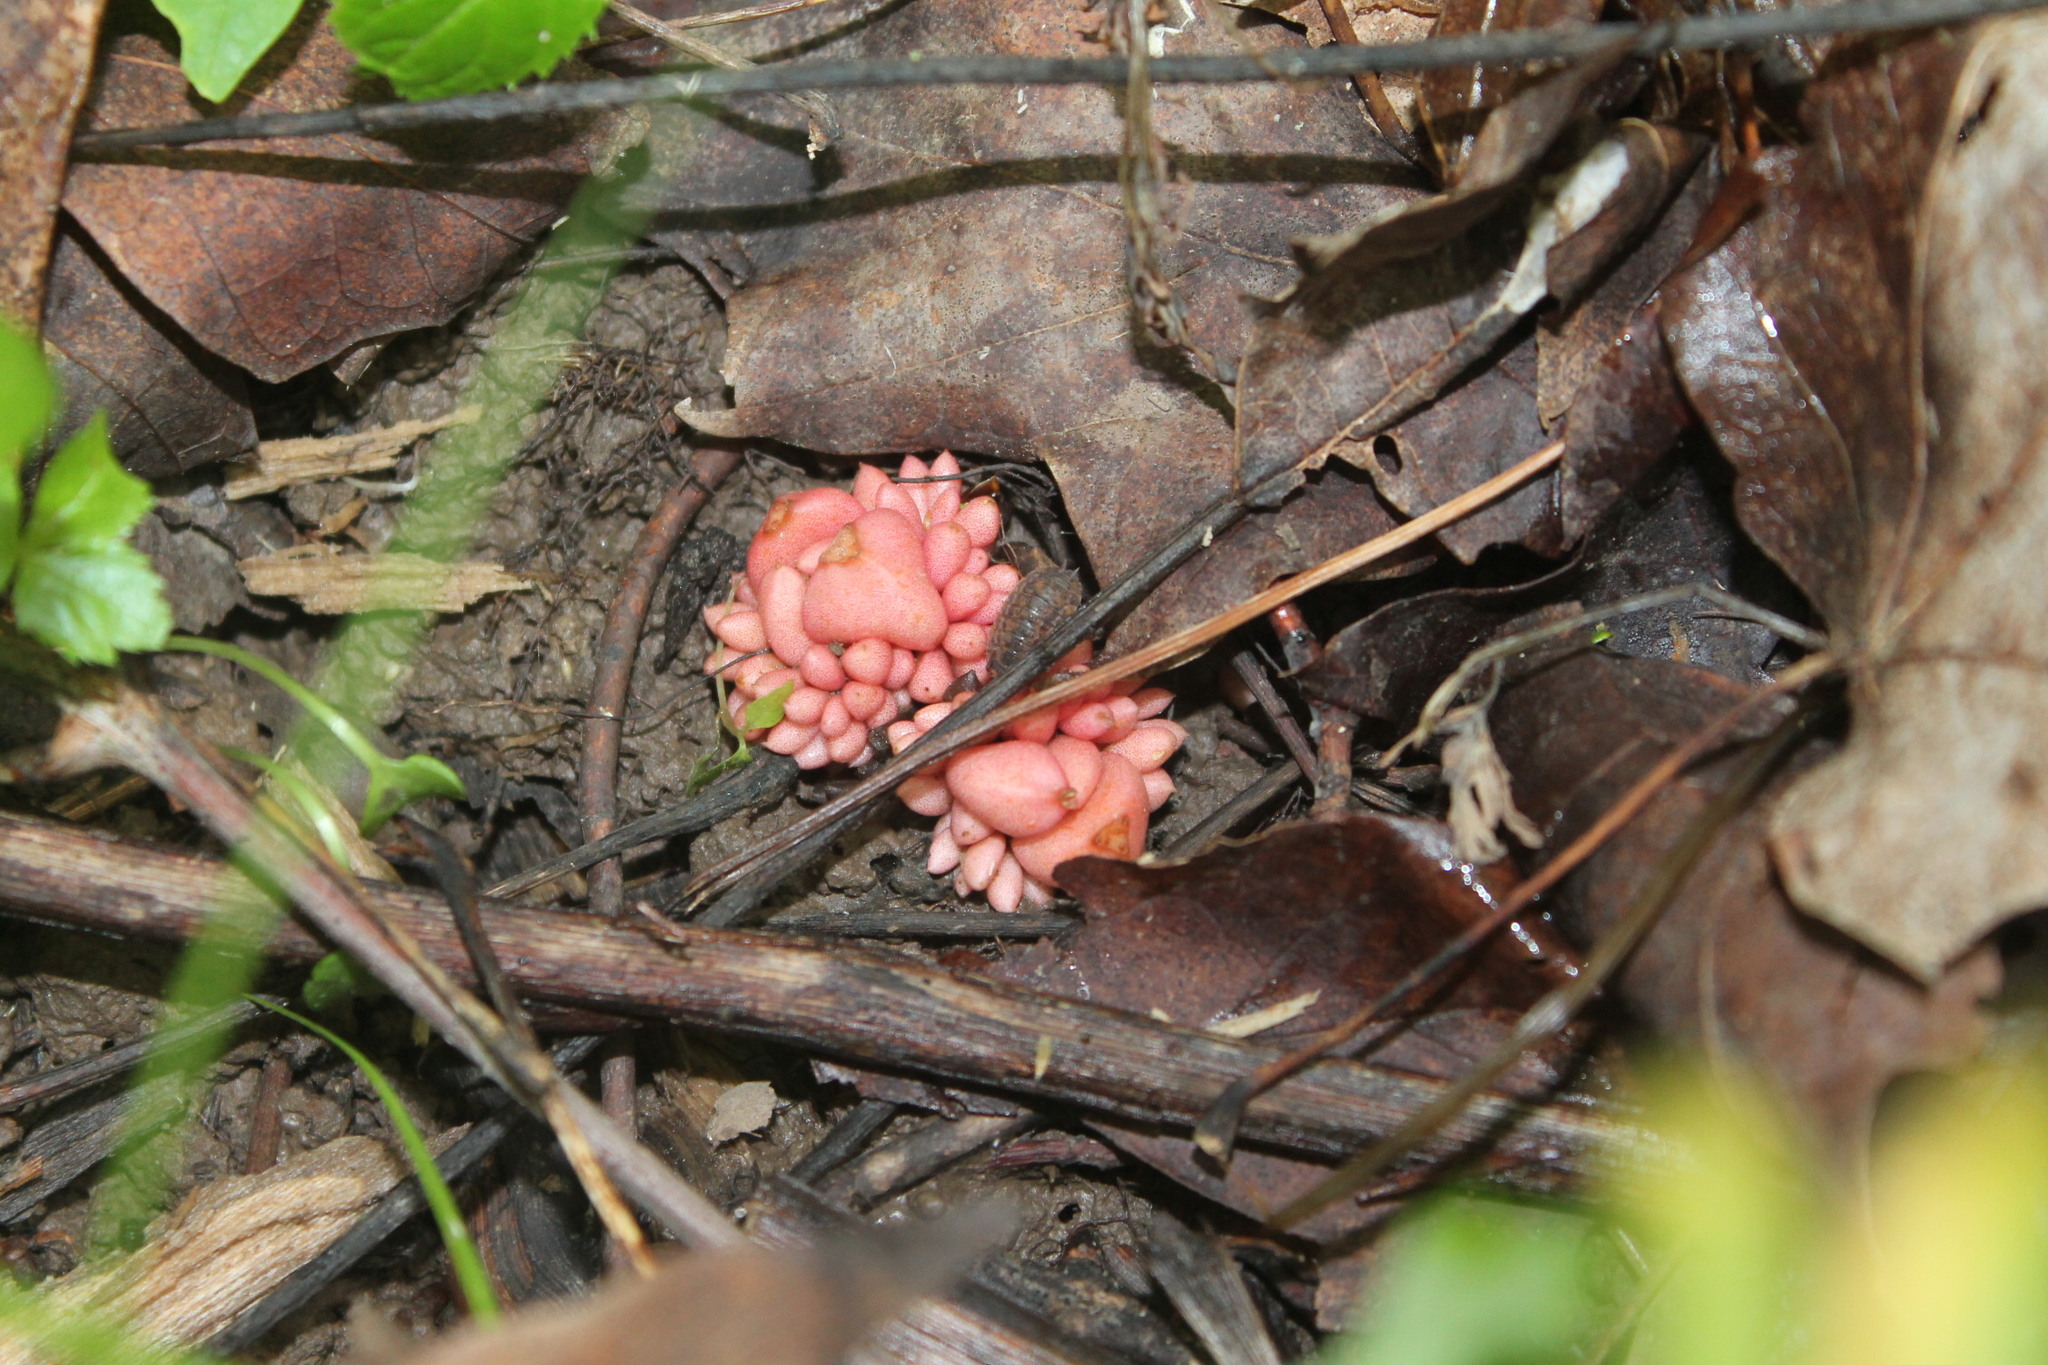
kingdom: Plantae
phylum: Tracheophyta
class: Magnoliopsida
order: Ranunculales
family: Papaveraceae
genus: Dicentra
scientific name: Dicentra cucullaria
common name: Dutchman's breeches
